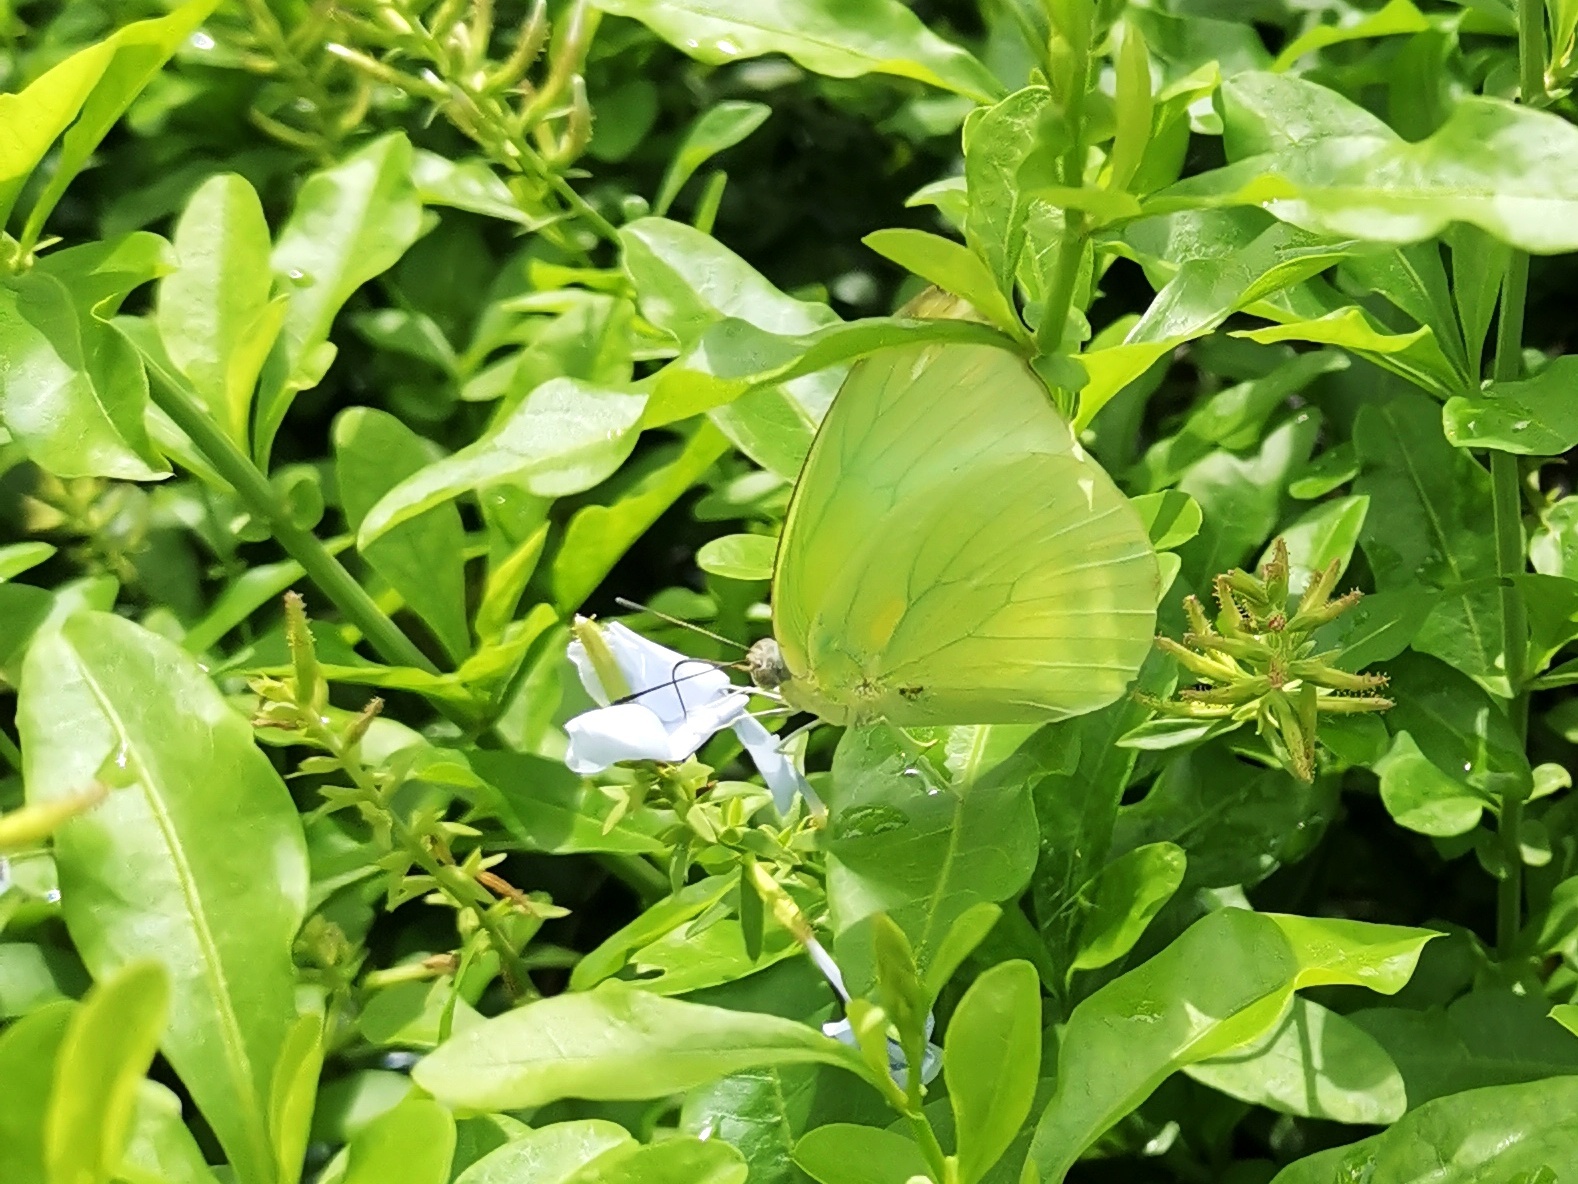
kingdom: Animalia
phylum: Arthropoda
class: Insecta
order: Lepidoptera
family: Pieridae
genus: Catopsilia
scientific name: Catopsilia pomona
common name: Common emigrant
